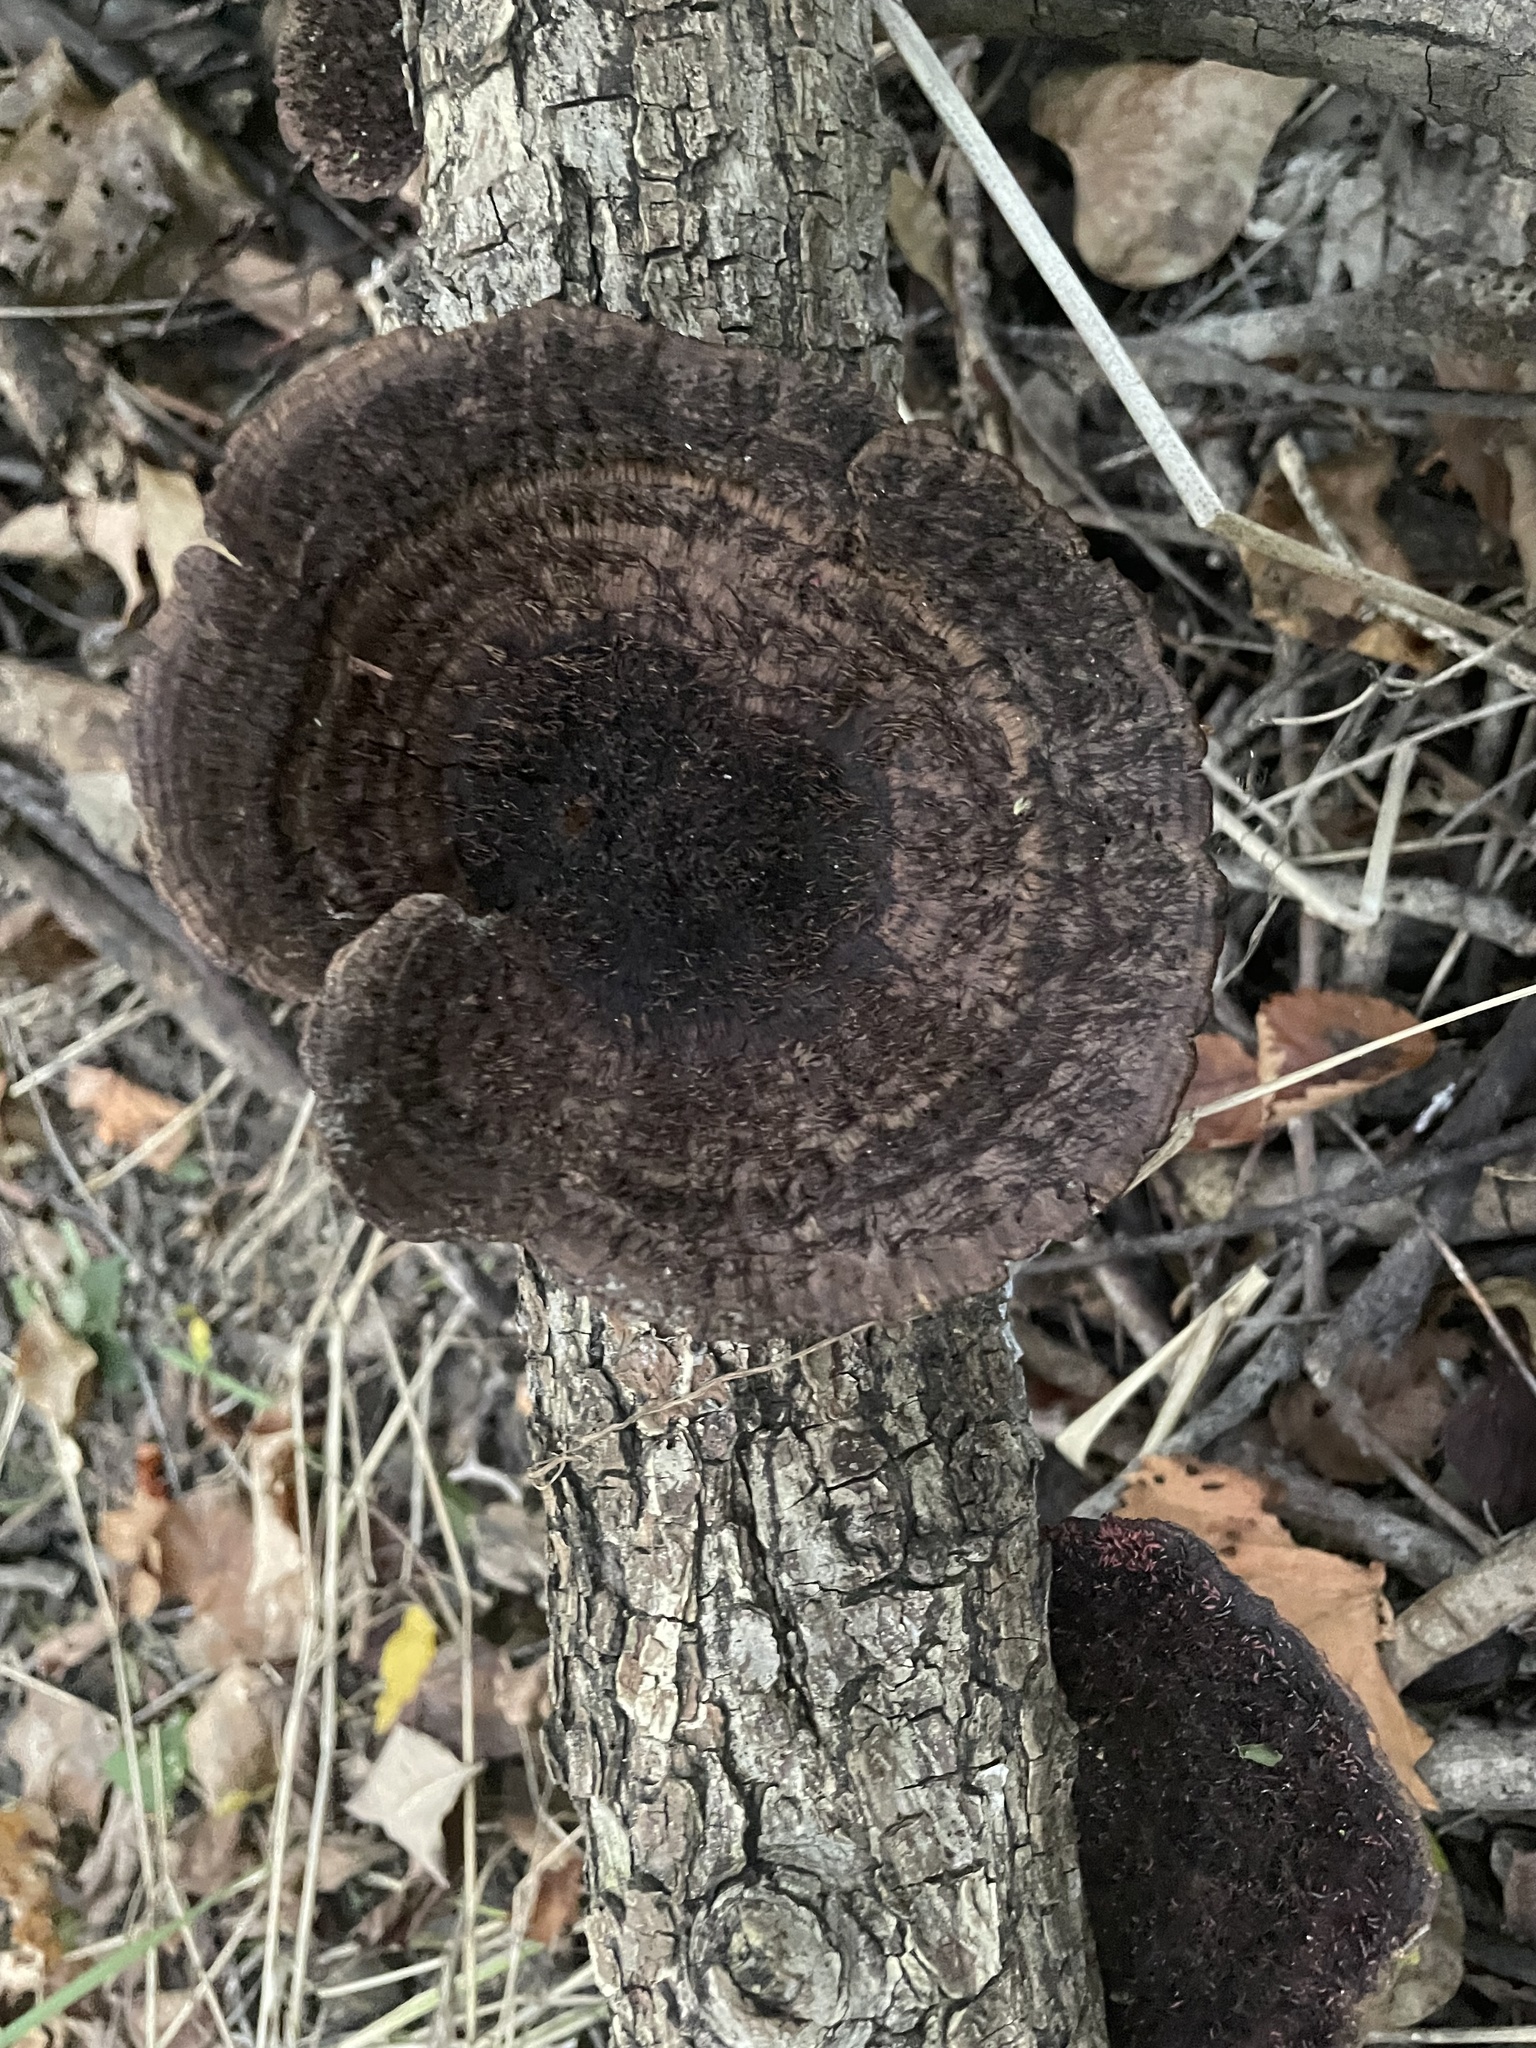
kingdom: Fungi
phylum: Basidiomycota
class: Agaricomycetes
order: Polyporales
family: Cerrenaceae
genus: Cerrena
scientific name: Cerrena hydnoides
